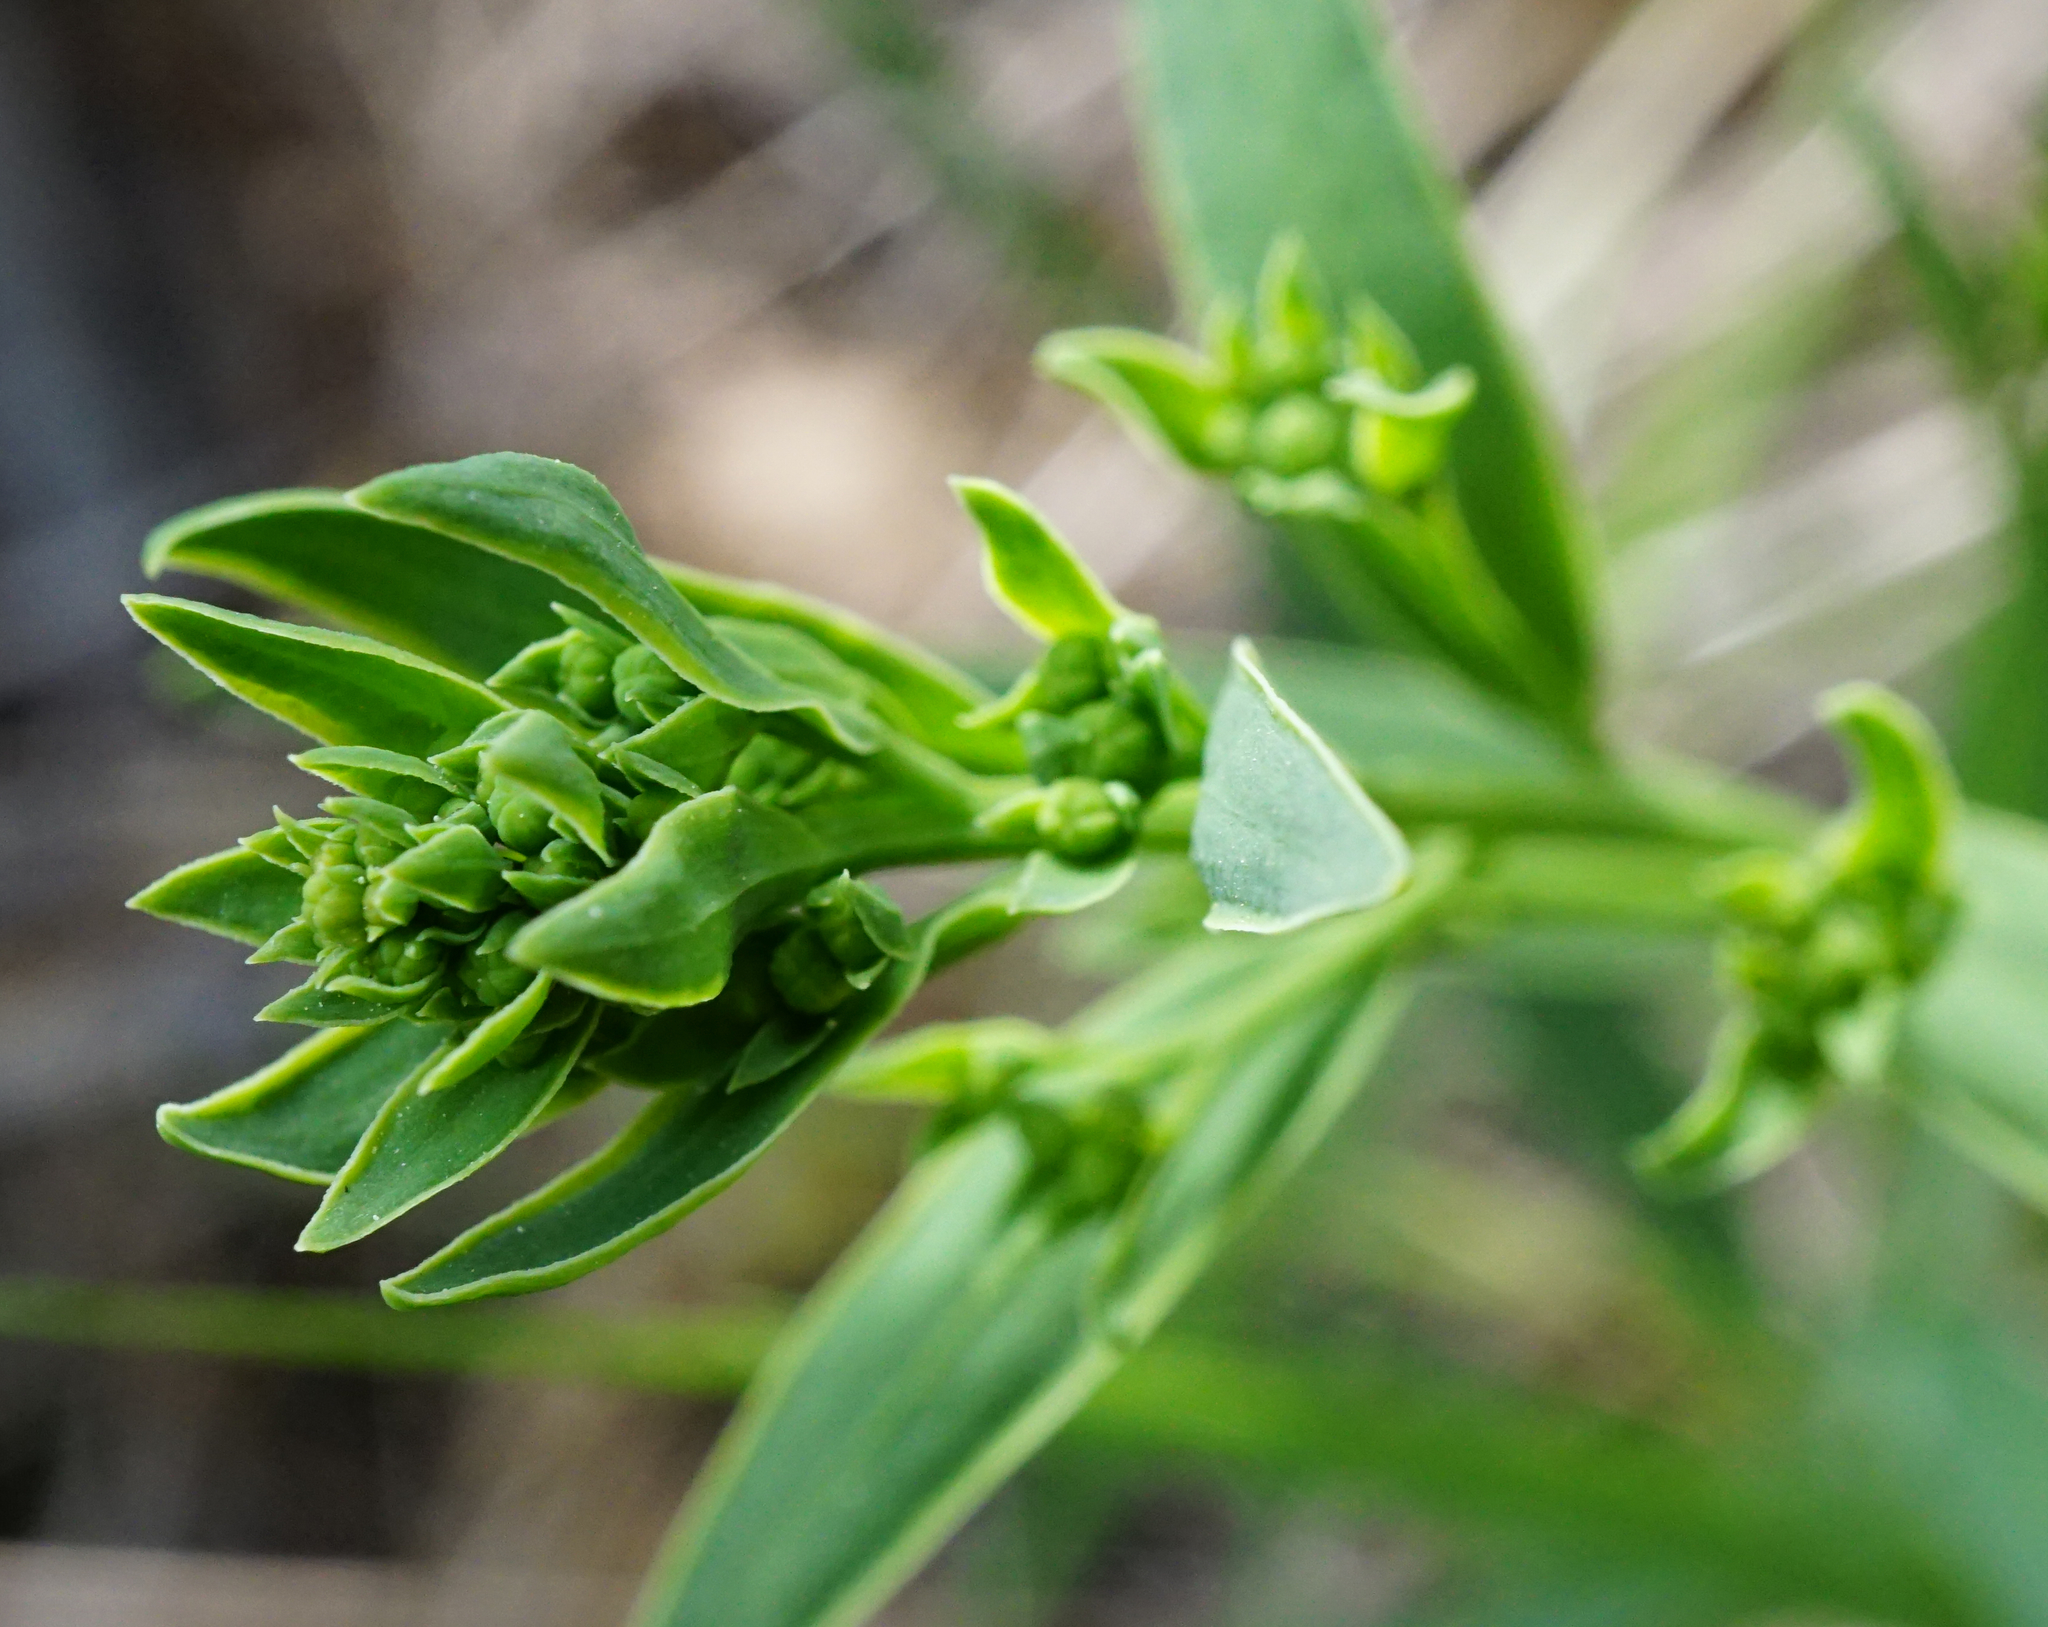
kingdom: Plantae
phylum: Tracheophyta
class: Magnoliopsida
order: Santalales
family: Thesiaceae
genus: Thesium
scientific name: Thesium linophyllon
